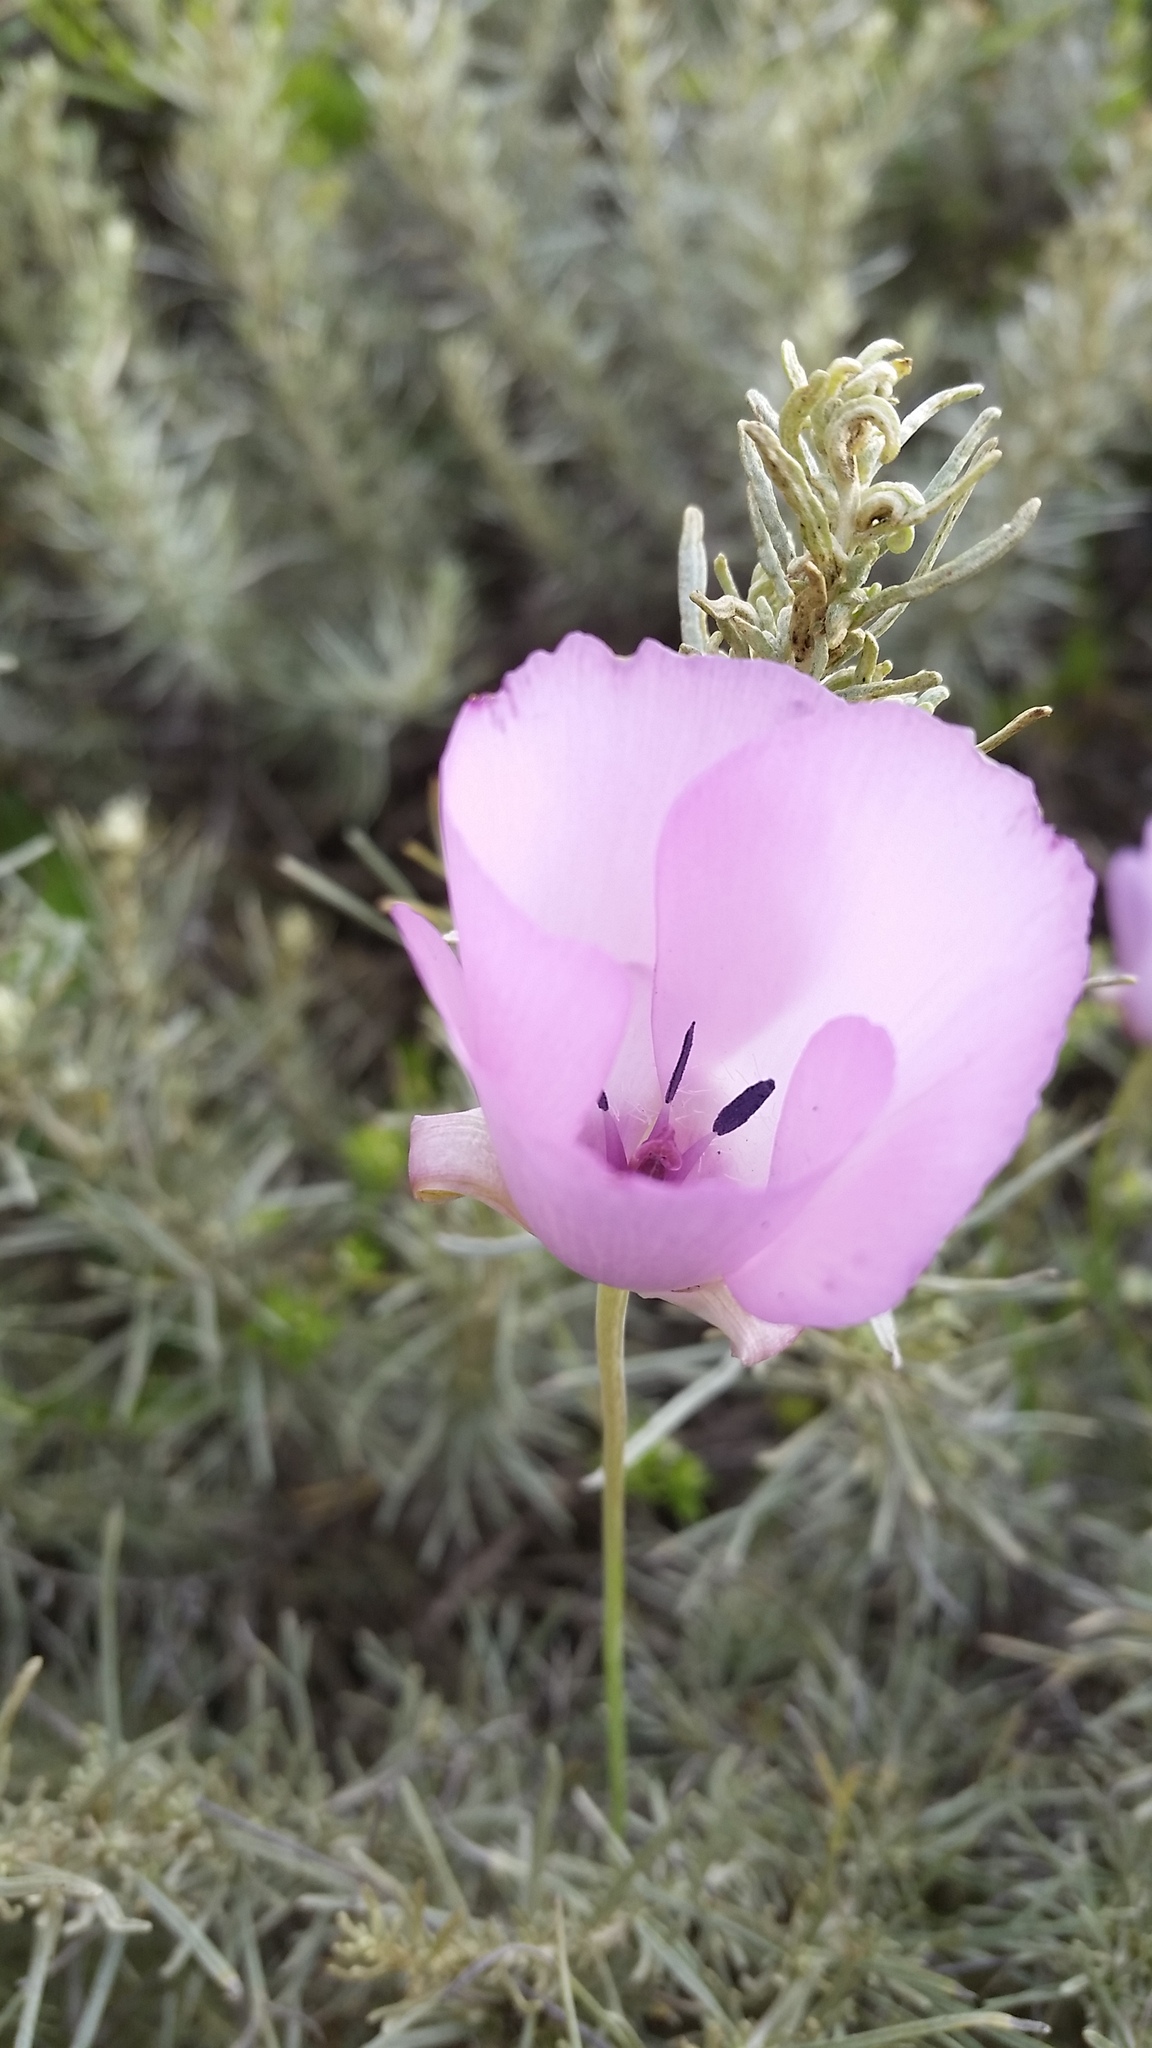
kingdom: Plantae
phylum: Tracheophyta
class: Liliopsida
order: Liliales
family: Liliaceae
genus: Calochortus
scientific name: Calochortus splendens
